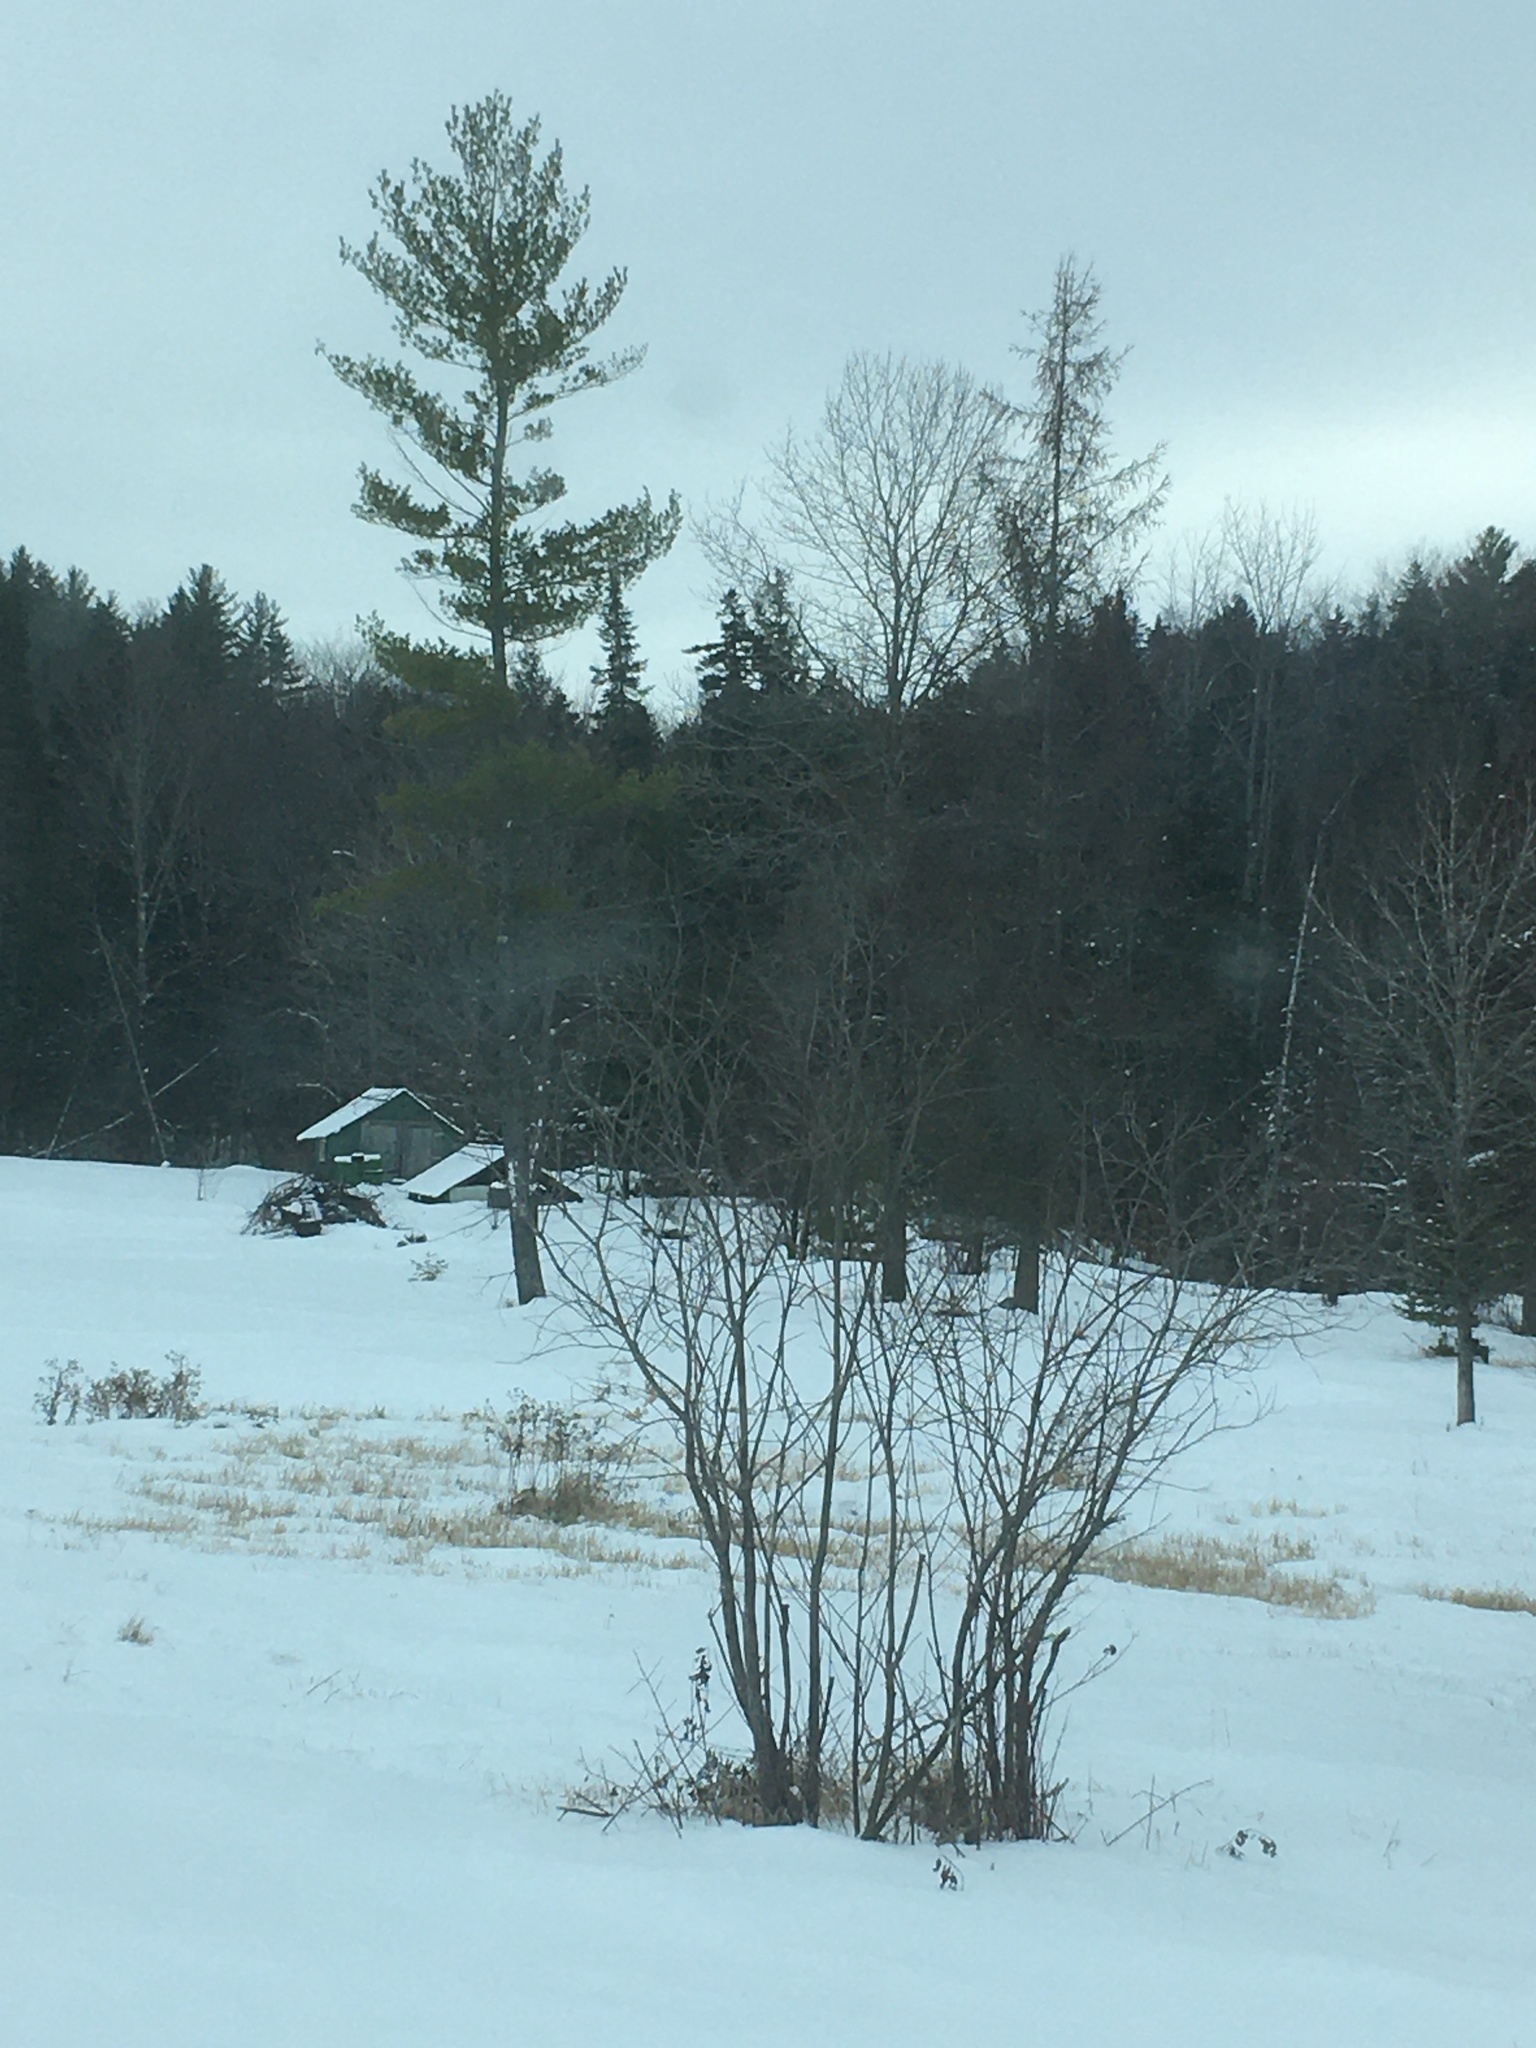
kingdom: Plantae
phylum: Tracheophyta
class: Pinopsida
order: Pinales
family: Pinaceae
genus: Pinus
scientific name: Pinus strobus
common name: Weymouth pine
